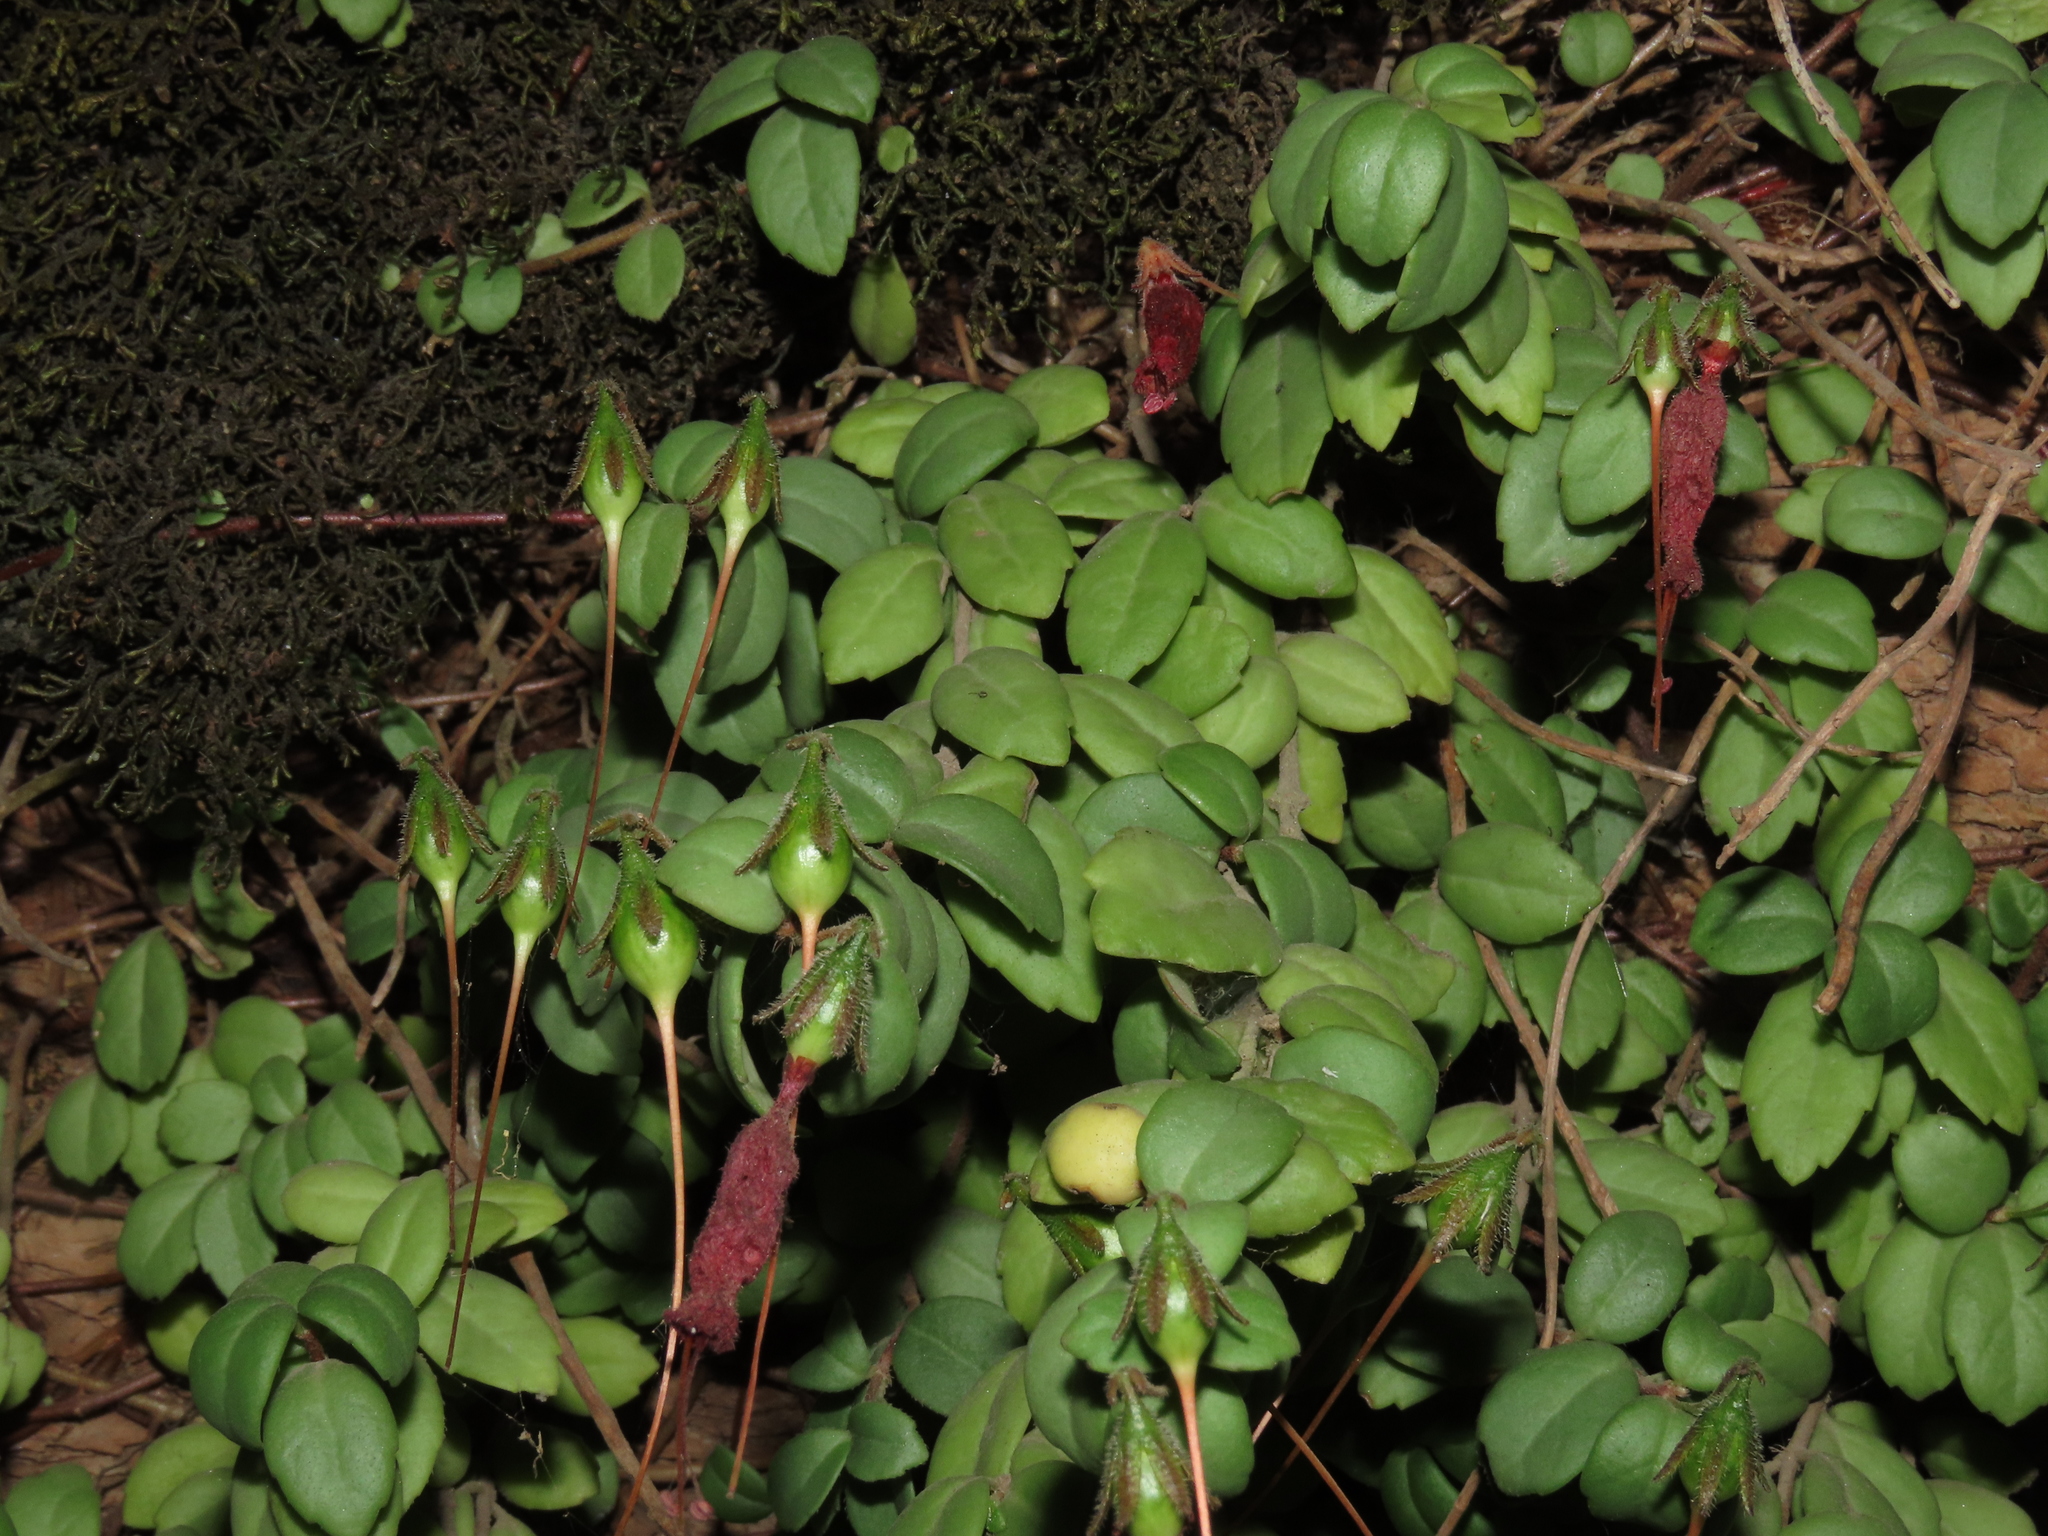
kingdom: Plantae
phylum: Tracheophyta
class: Magnoliopsida
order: Lamiales
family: Gesneriaceae
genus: Sarmienta
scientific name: Sarmienta scandens
